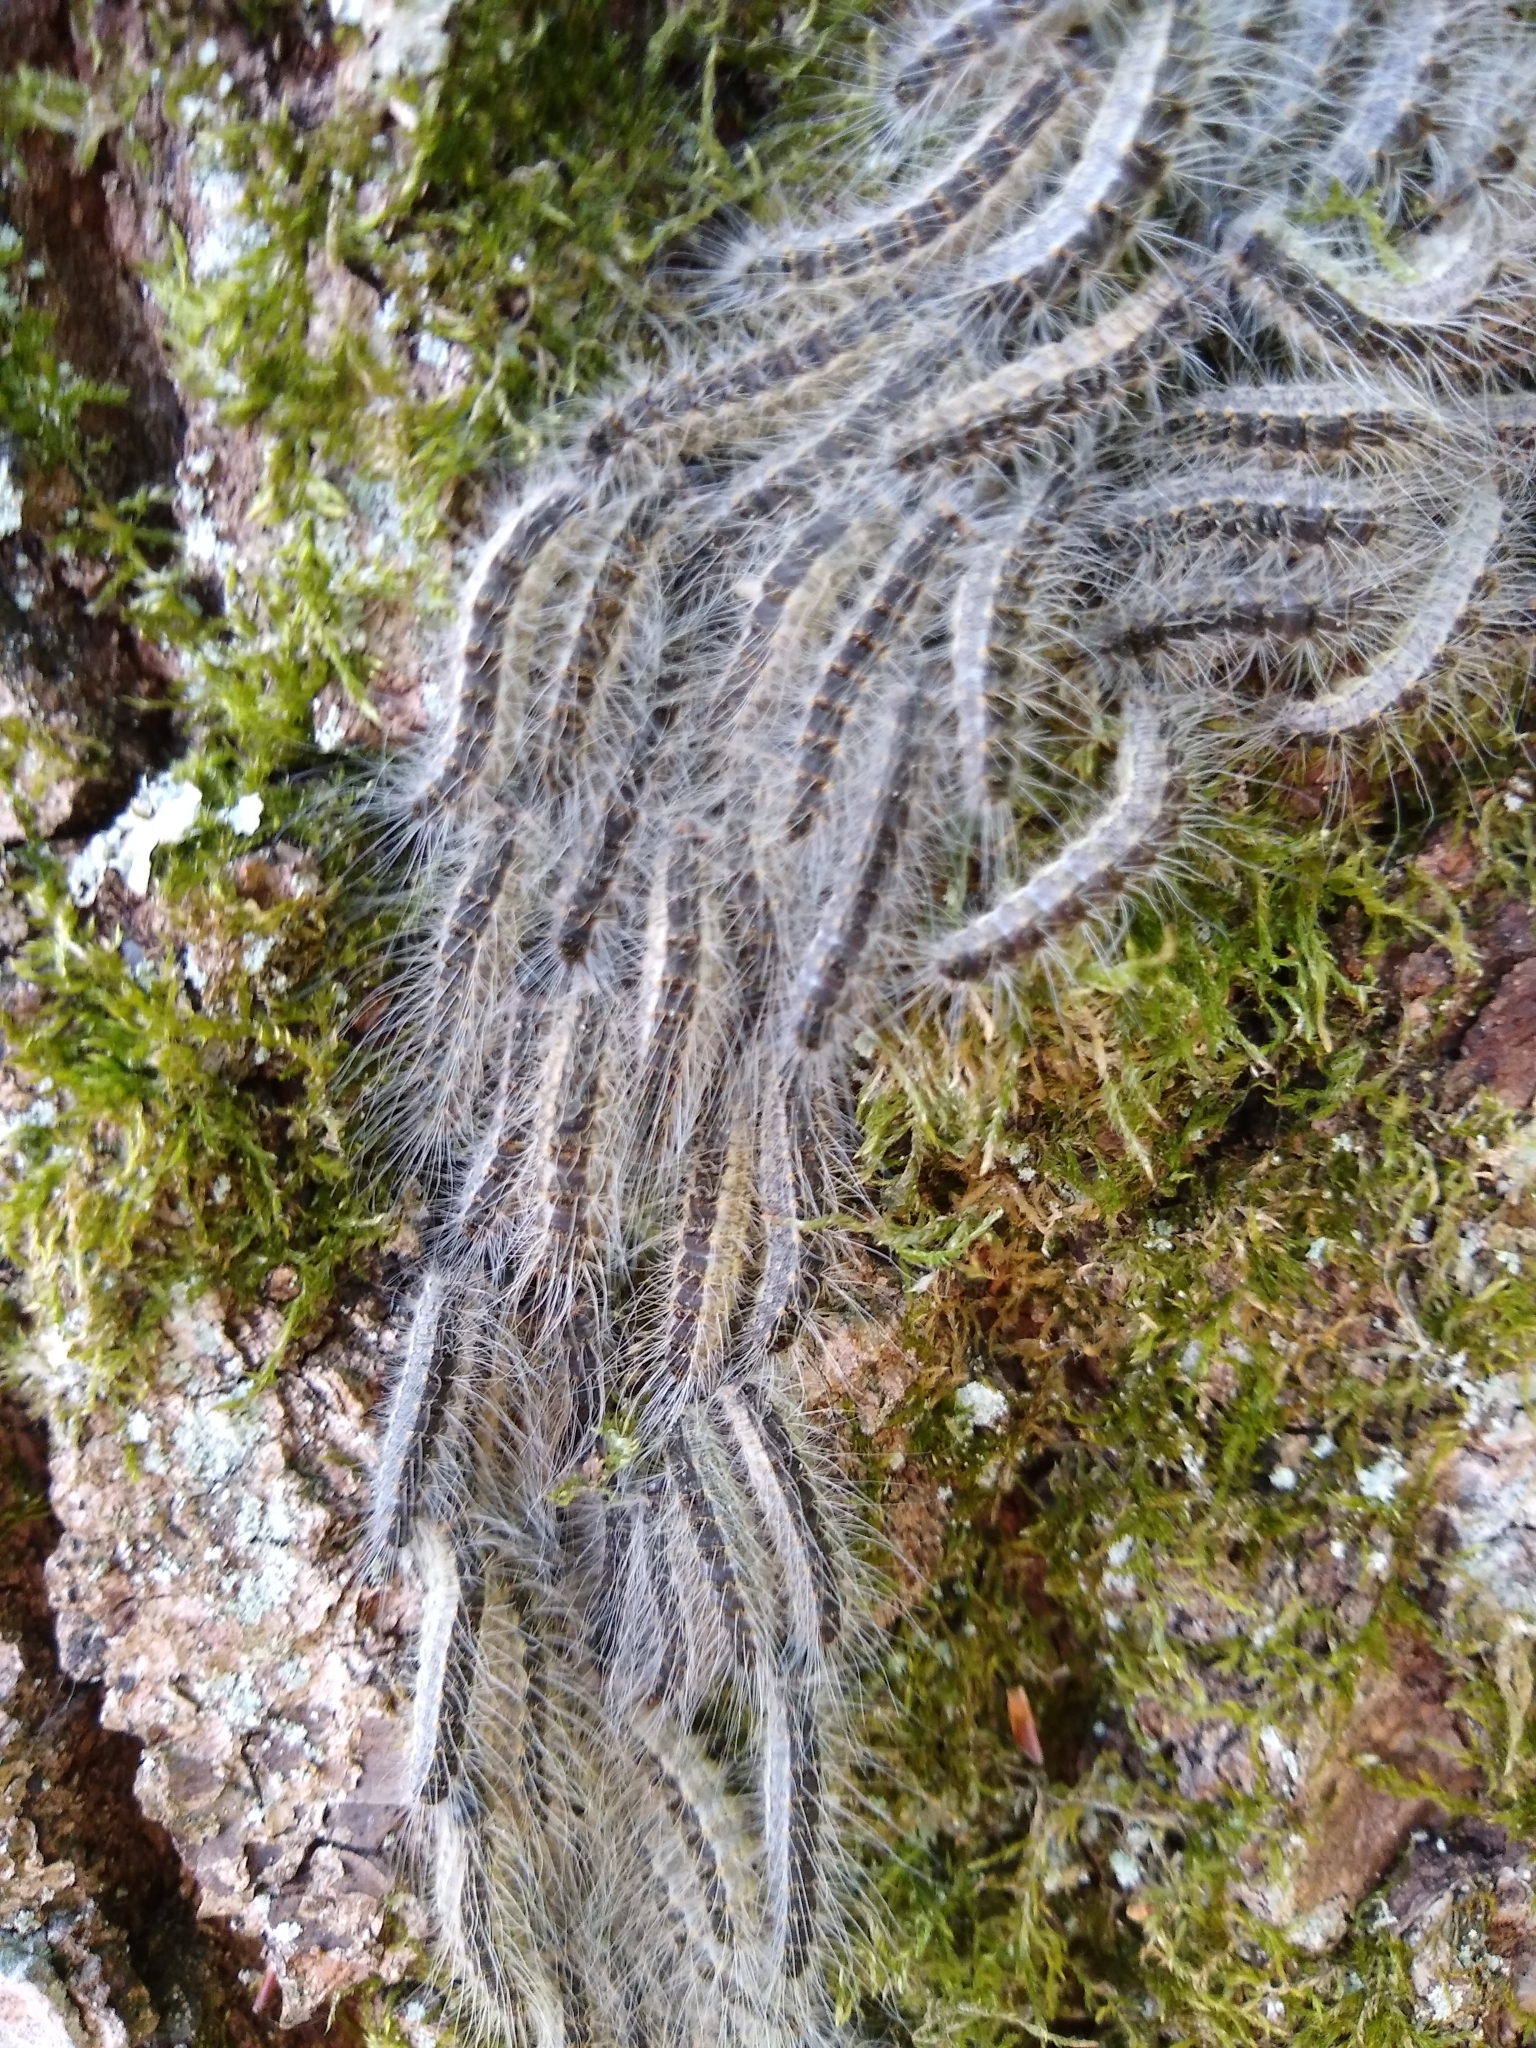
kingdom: Animalia
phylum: Arthropoda
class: Insecta
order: Lepidoptera
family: Notodontidae
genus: Thaumetopoea
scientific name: Thaumetopoea processionea
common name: Oak processionea
